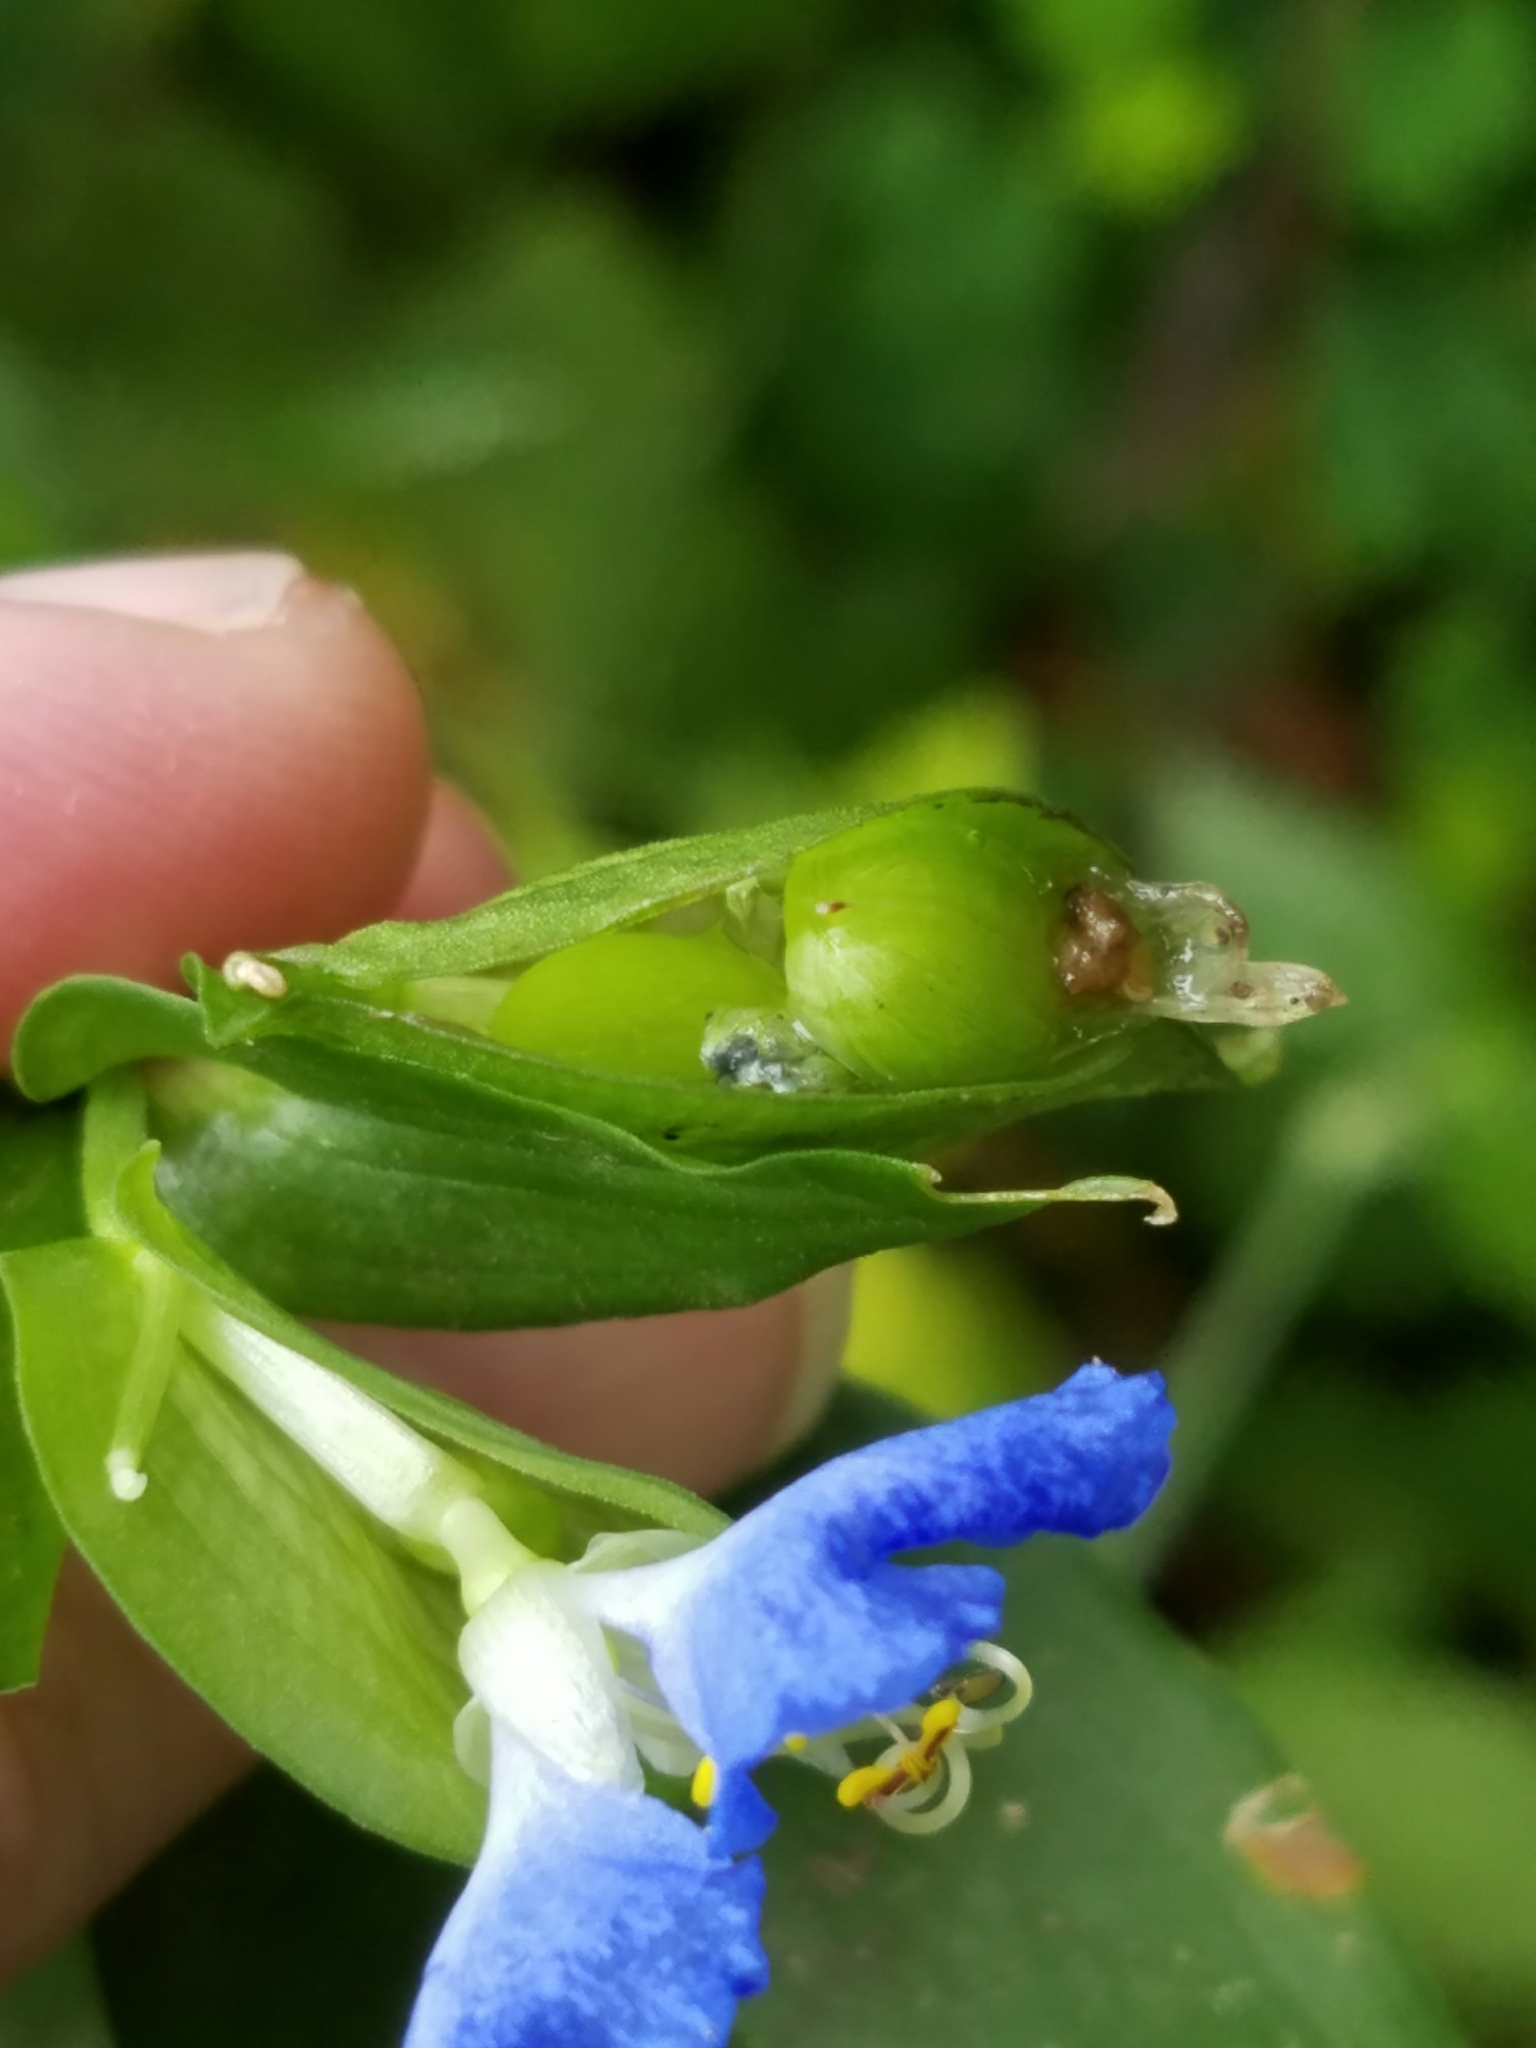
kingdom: Plantae
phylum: Tracheophyta
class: Liliopsida
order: Commelinales
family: Commelinaceae
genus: Commelina
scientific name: Commelina communis
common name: Asiatic dayflower
